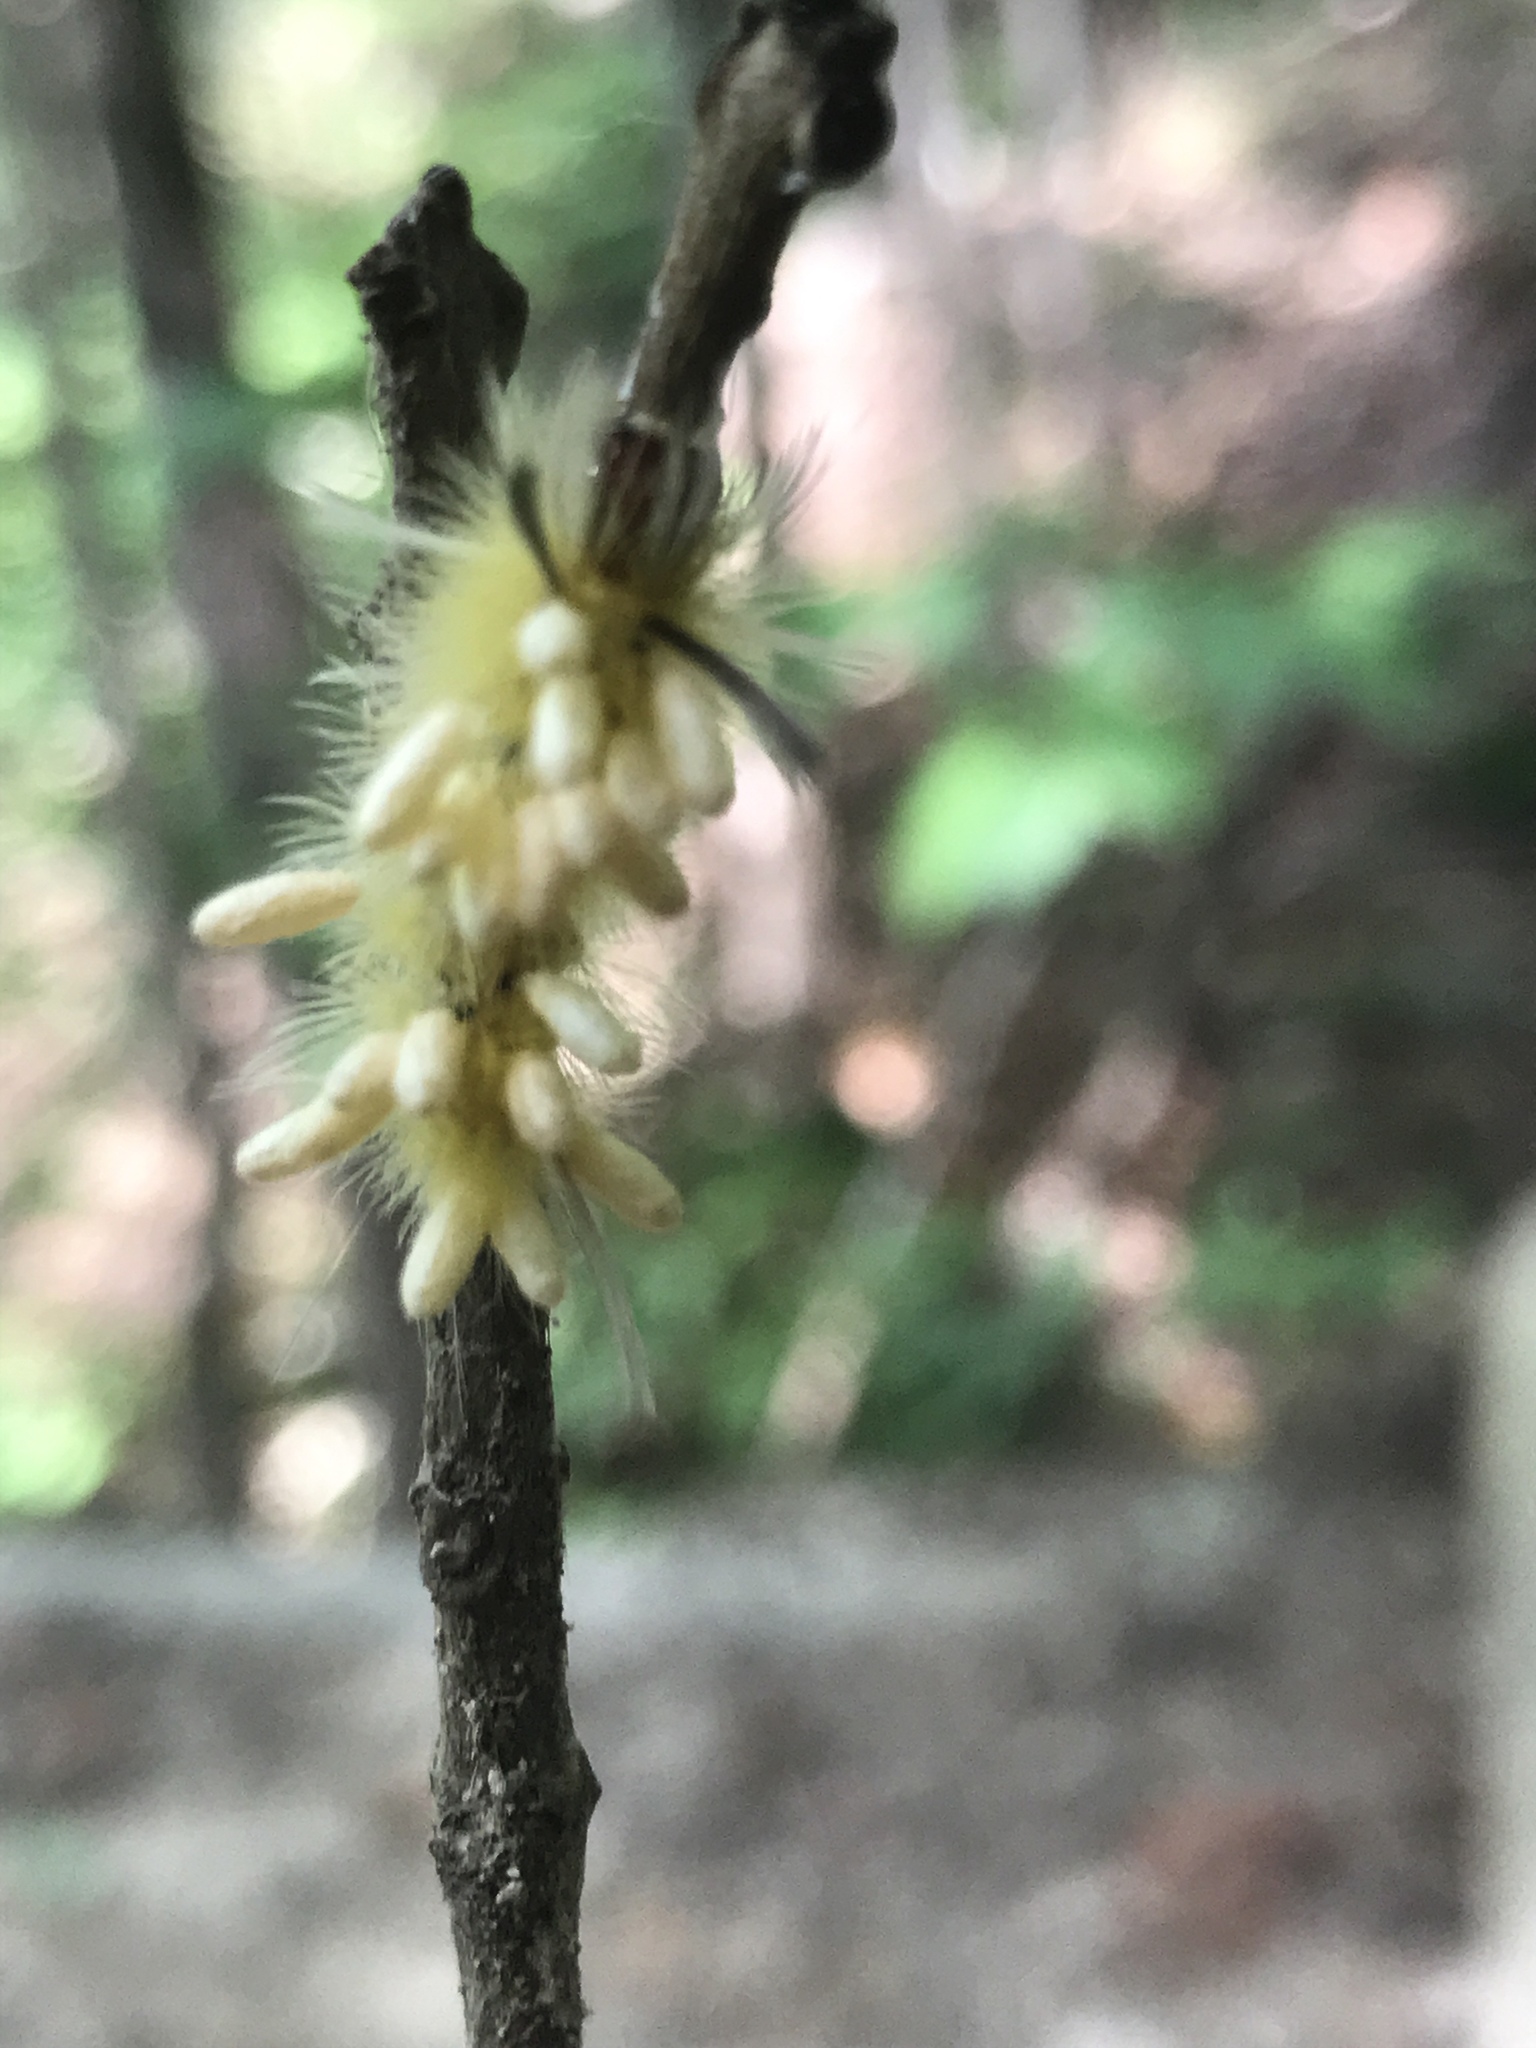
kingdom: Animalia
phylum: Arthropoda
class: Insecta
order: Lepidoptera
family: Erebidae
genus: Halysidota
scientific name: Halysidota tessellaris
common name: Banded tussock moth
